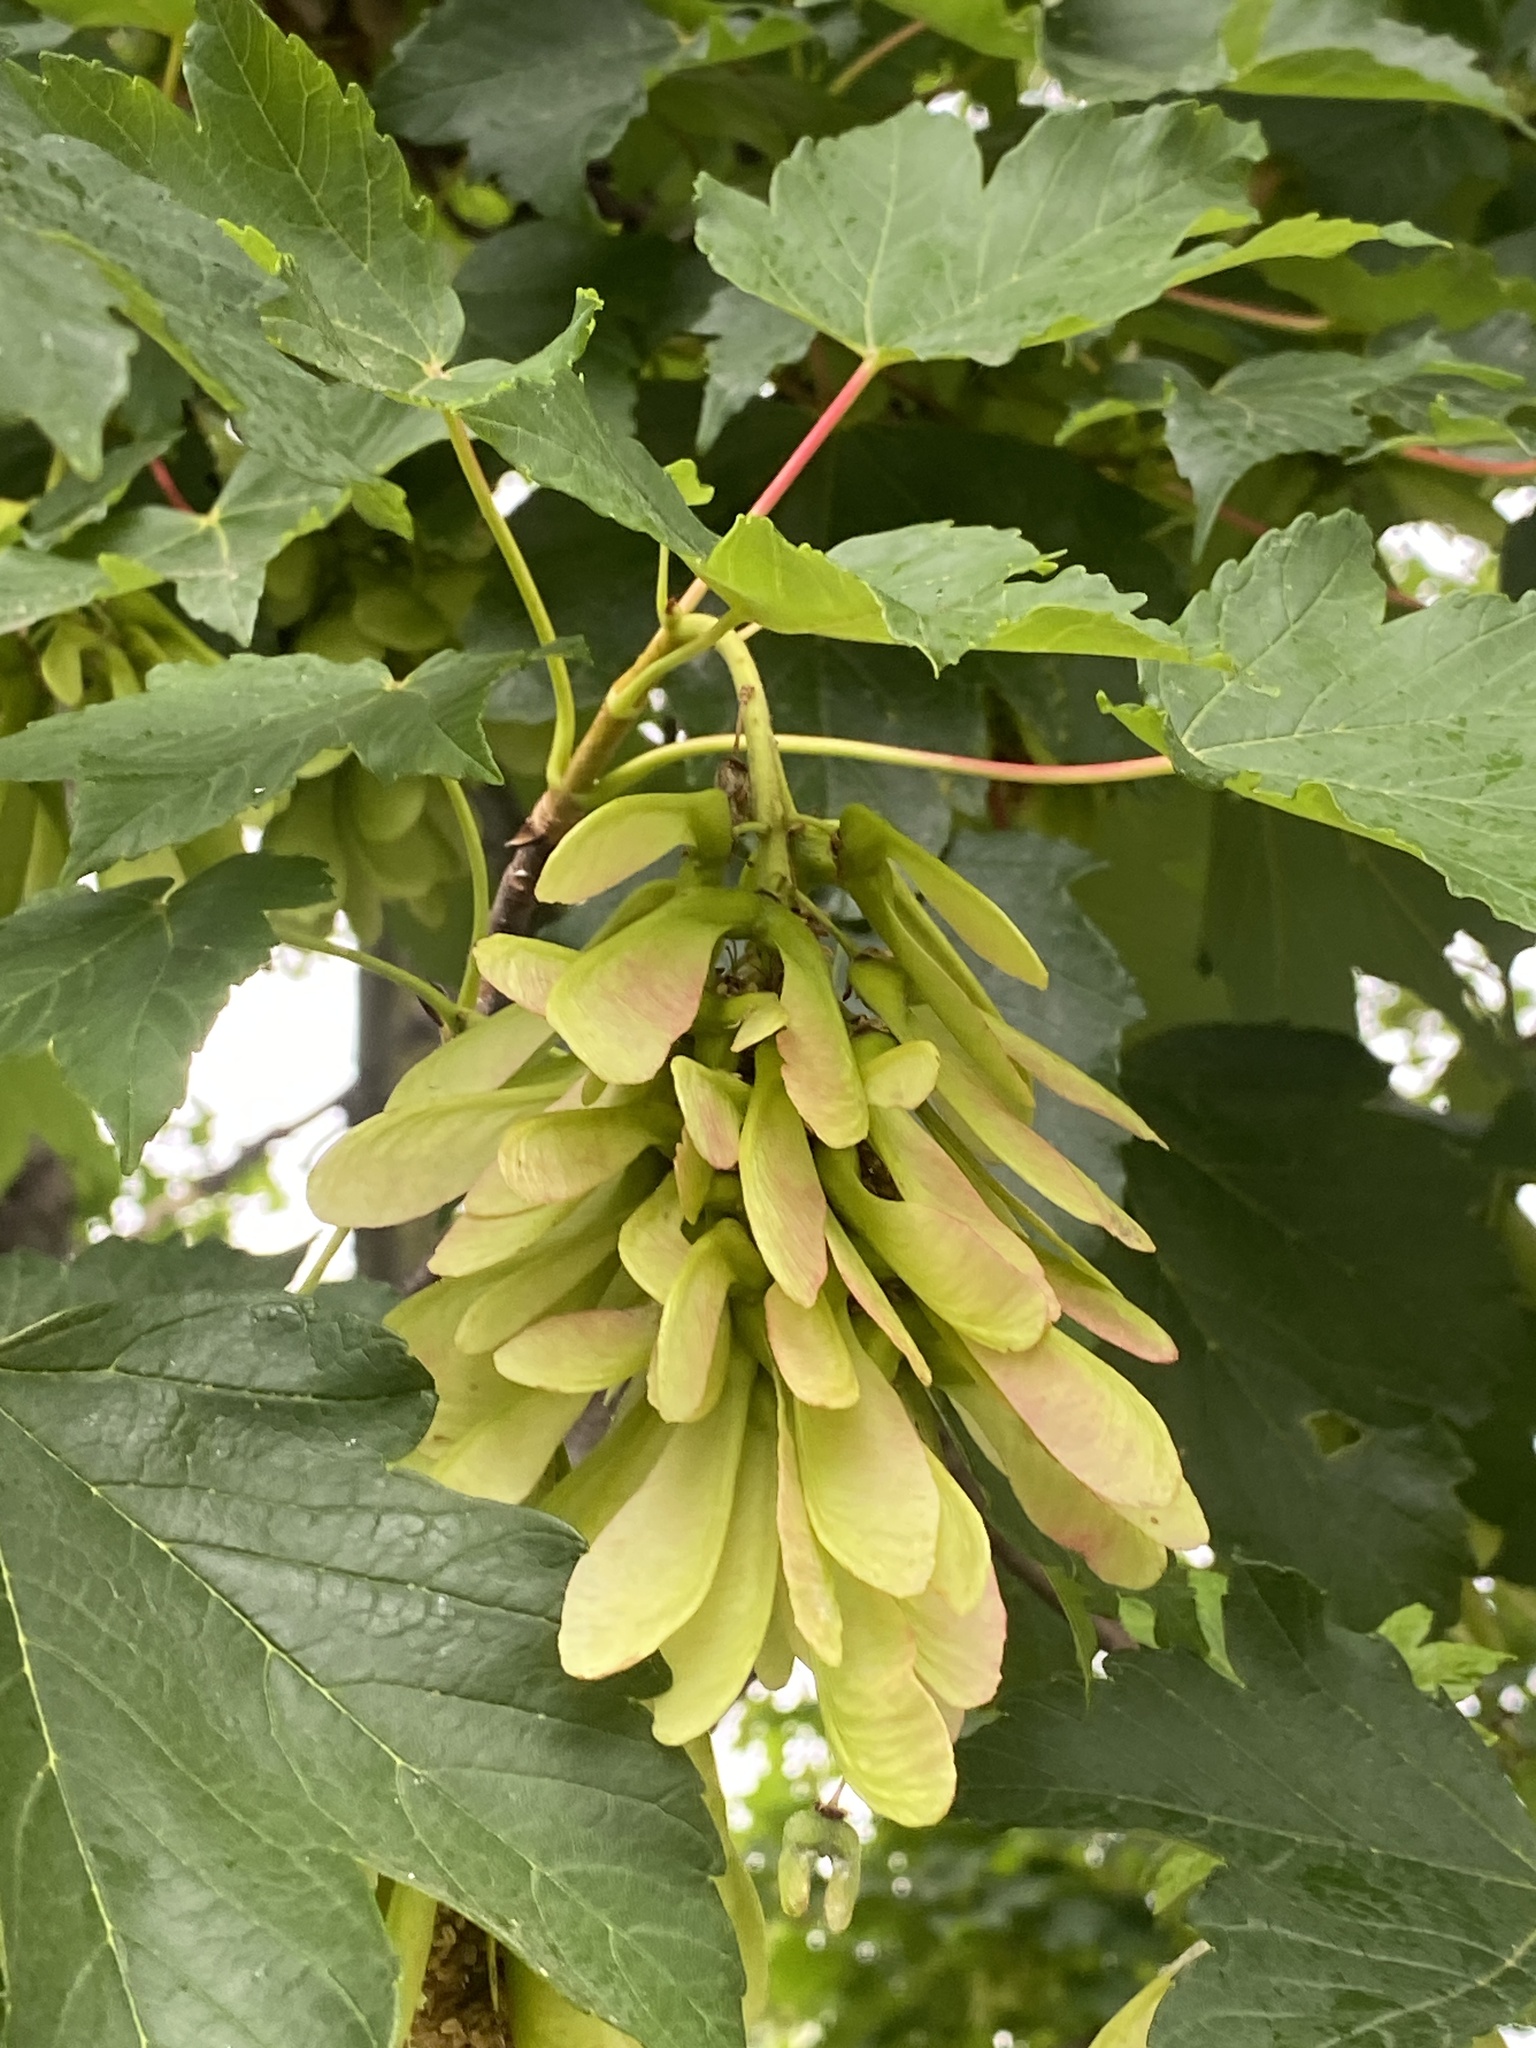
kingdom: Plantae
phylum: Tracheophyta
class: Magnoliopsida
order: Sapindales
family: Sapindaceae
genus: Acer
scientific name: Acer pseudoplatanus
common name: Sycamore
